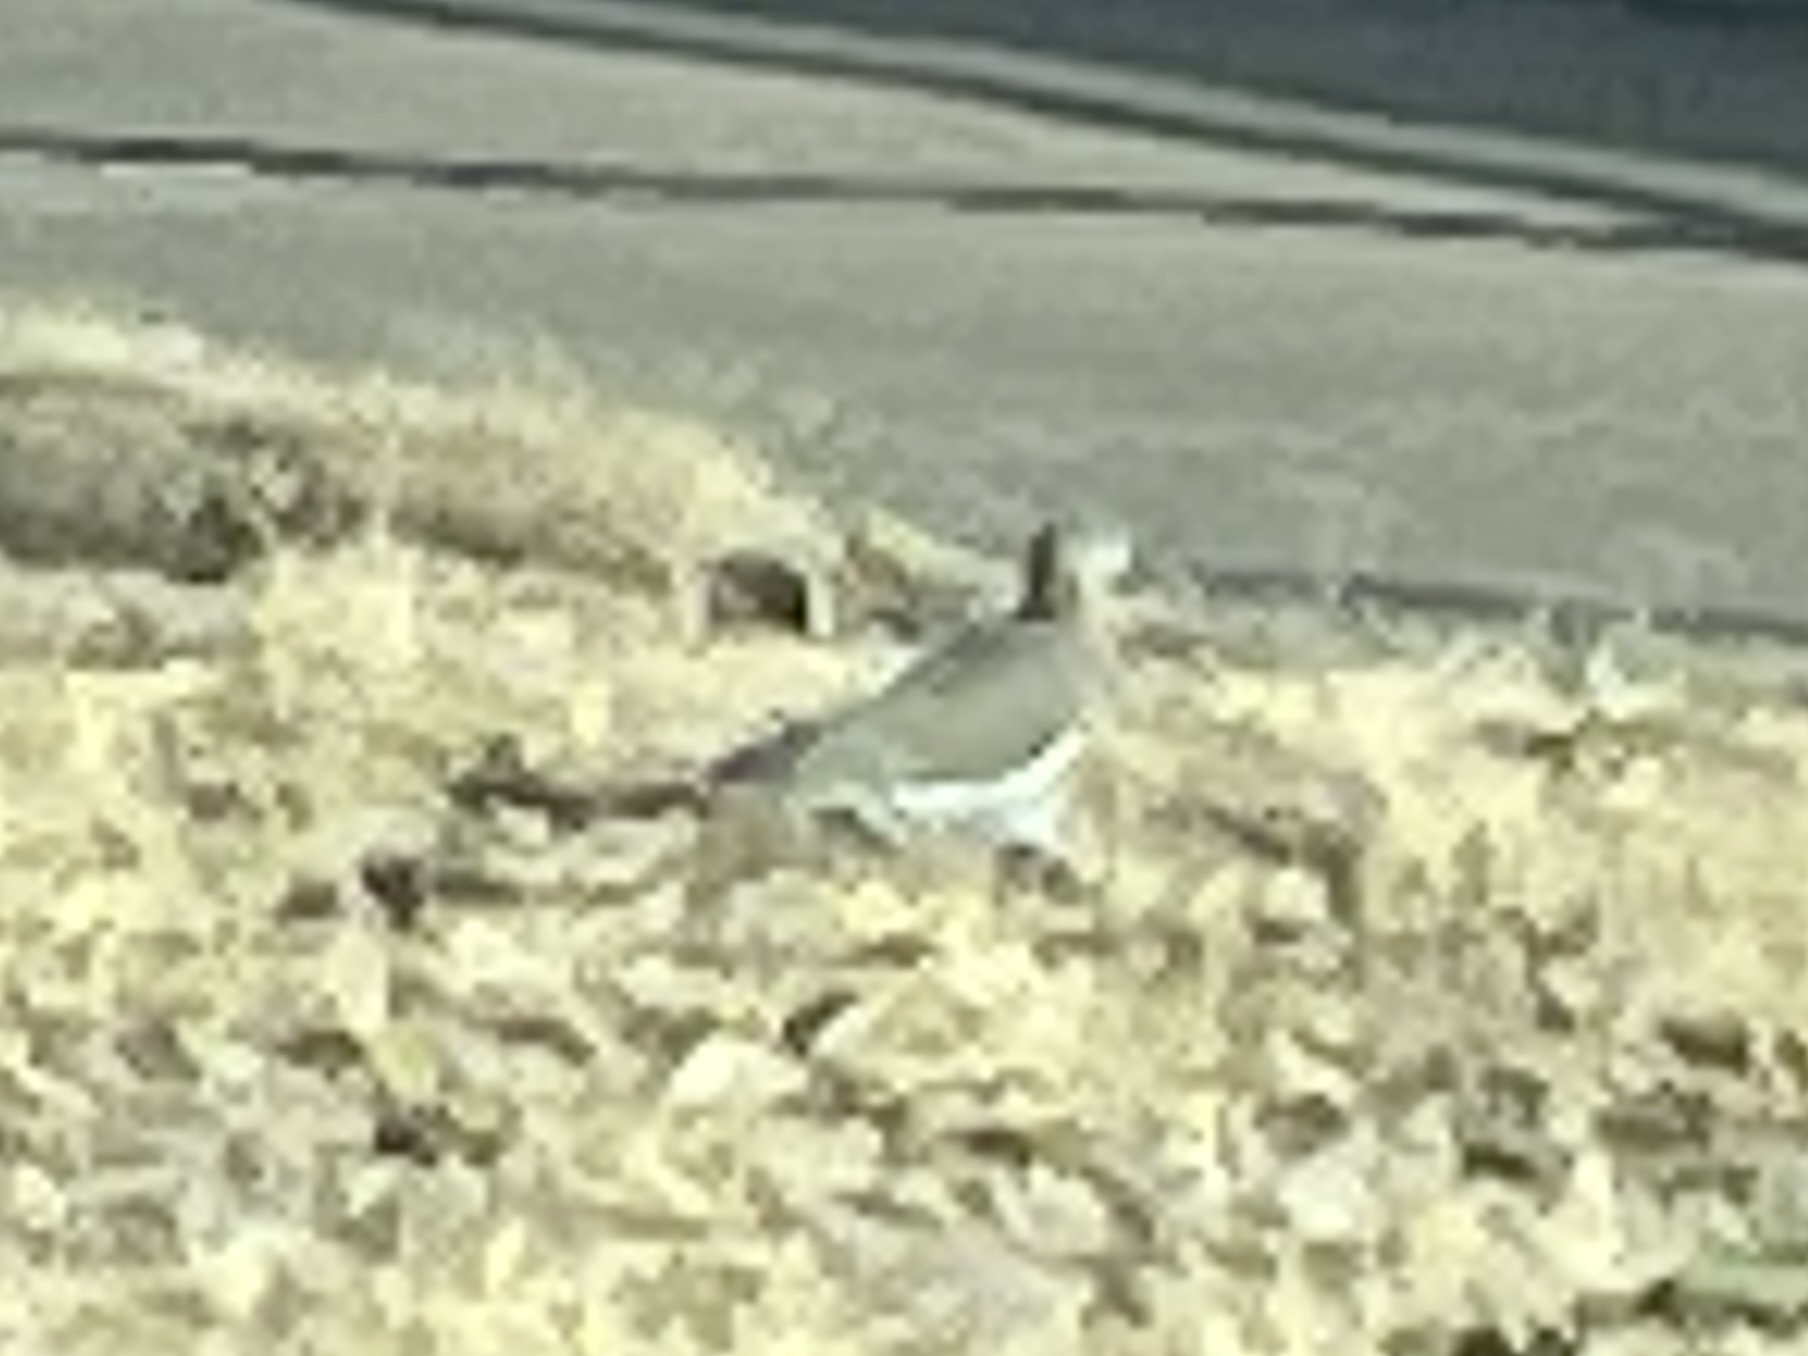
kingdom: Animalia
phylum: Chordata
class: Aves
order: Columbiformes
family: Columbidae
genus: Zenaida
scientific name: Zenaida asiatica
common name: White-winged dove
